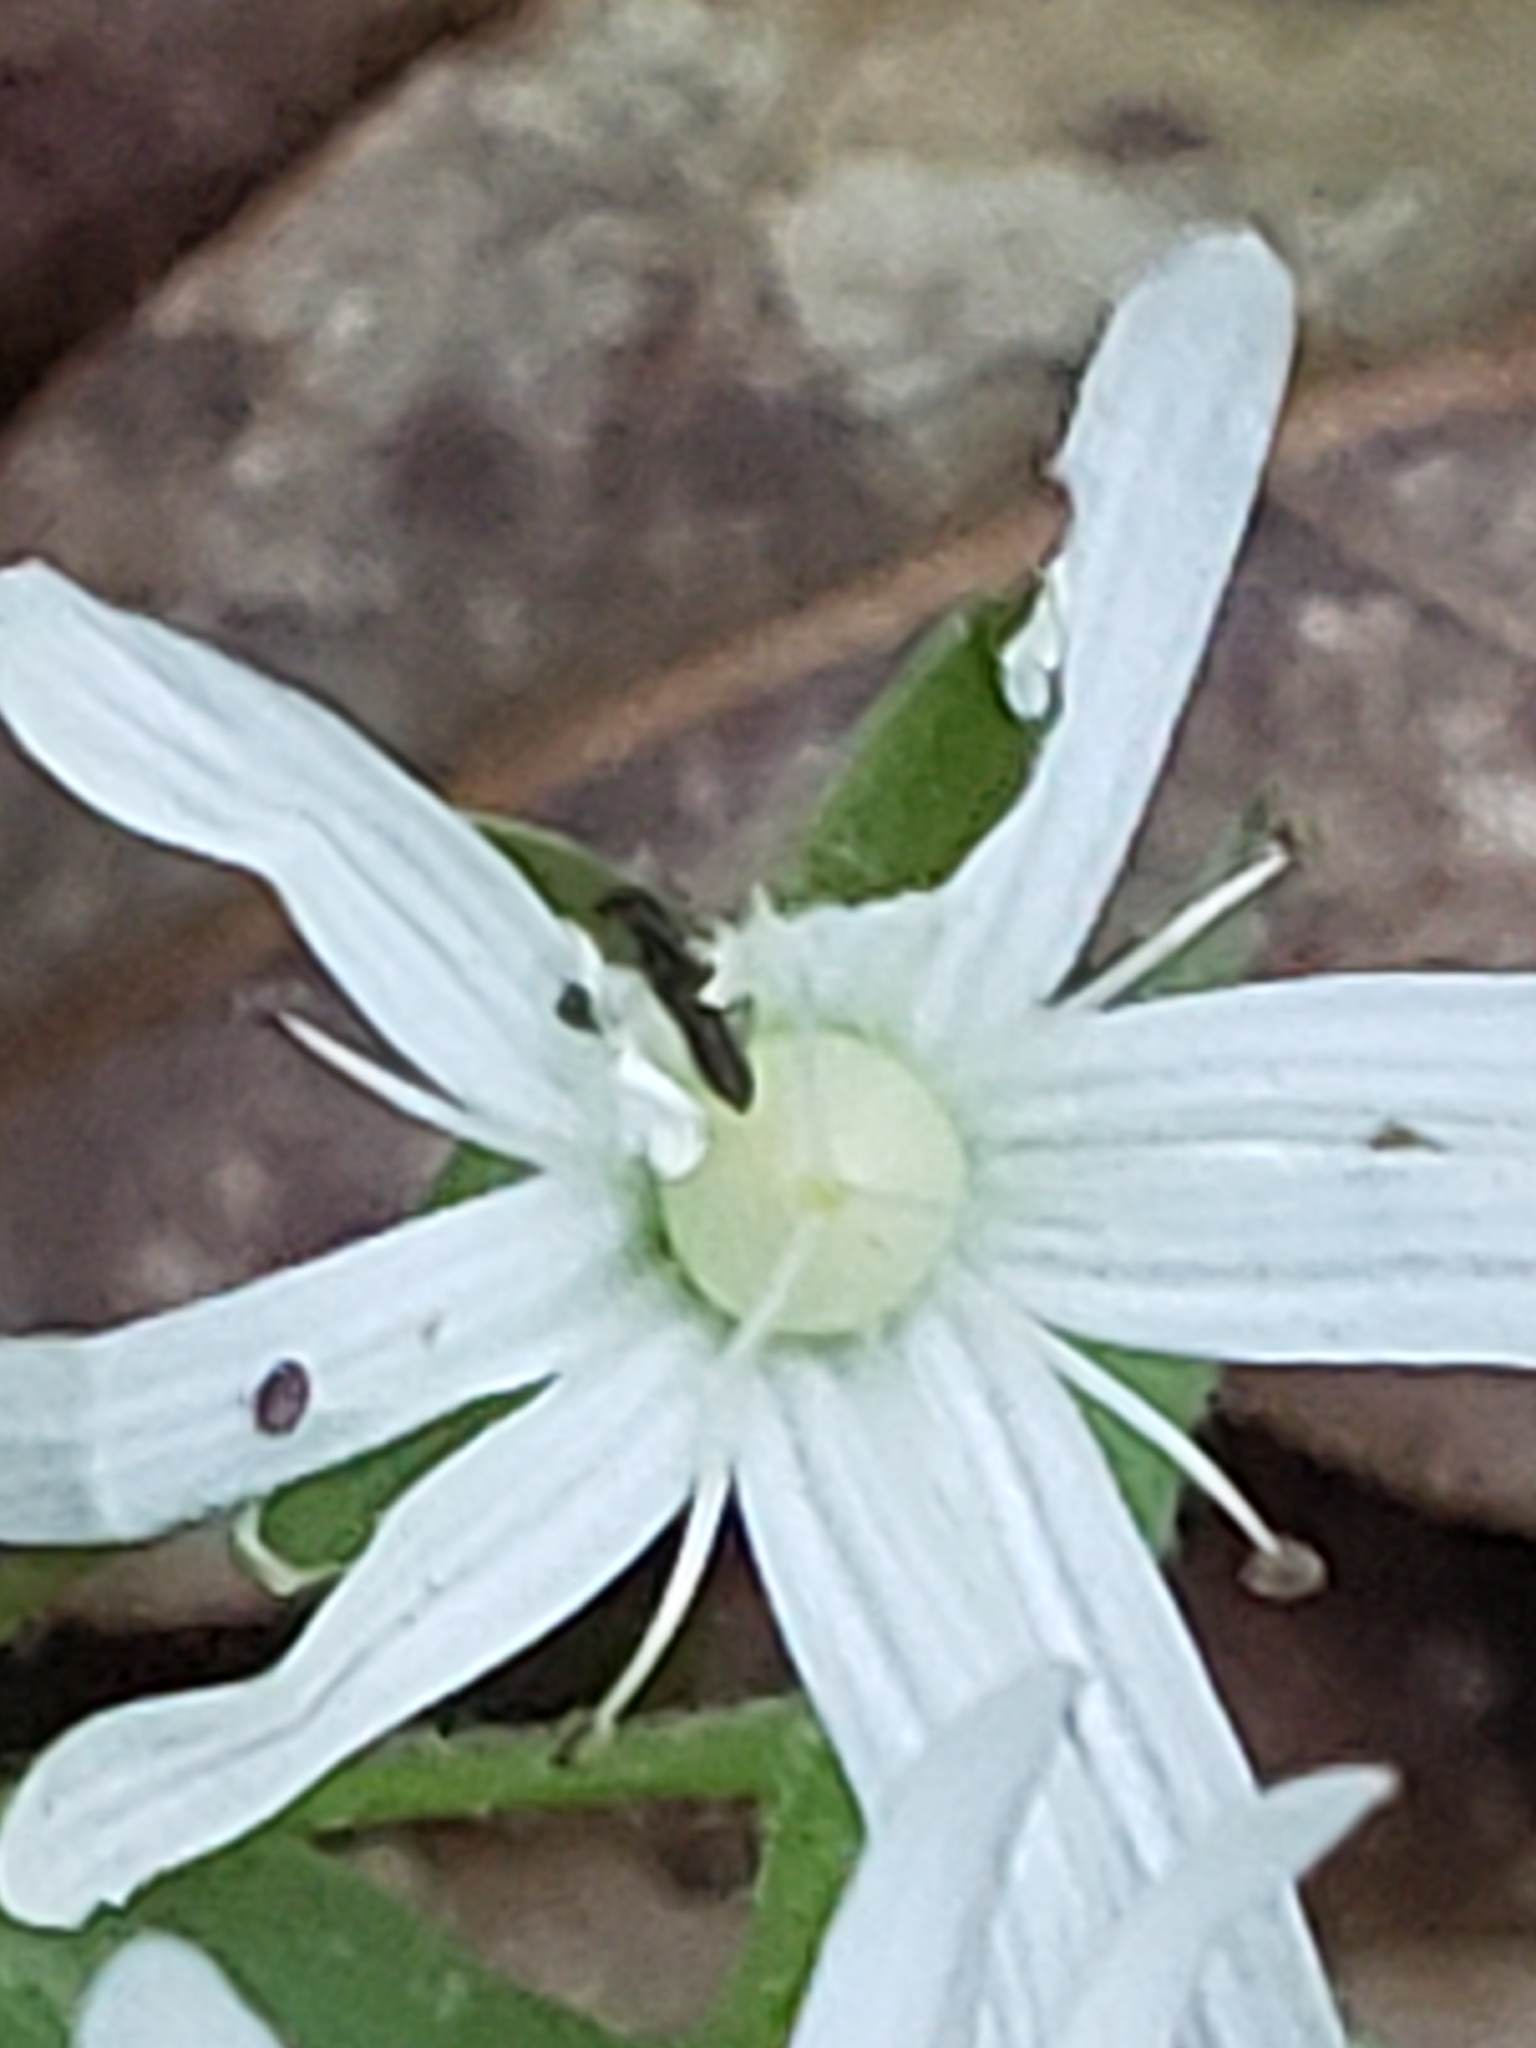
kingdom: Plantae
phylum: Tracheophyta
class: Magnoliopsida
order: Caryophyllales
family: Caryophyllaceae
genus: Stellaria
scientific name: Stellaria pubera
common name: Star chickweed
